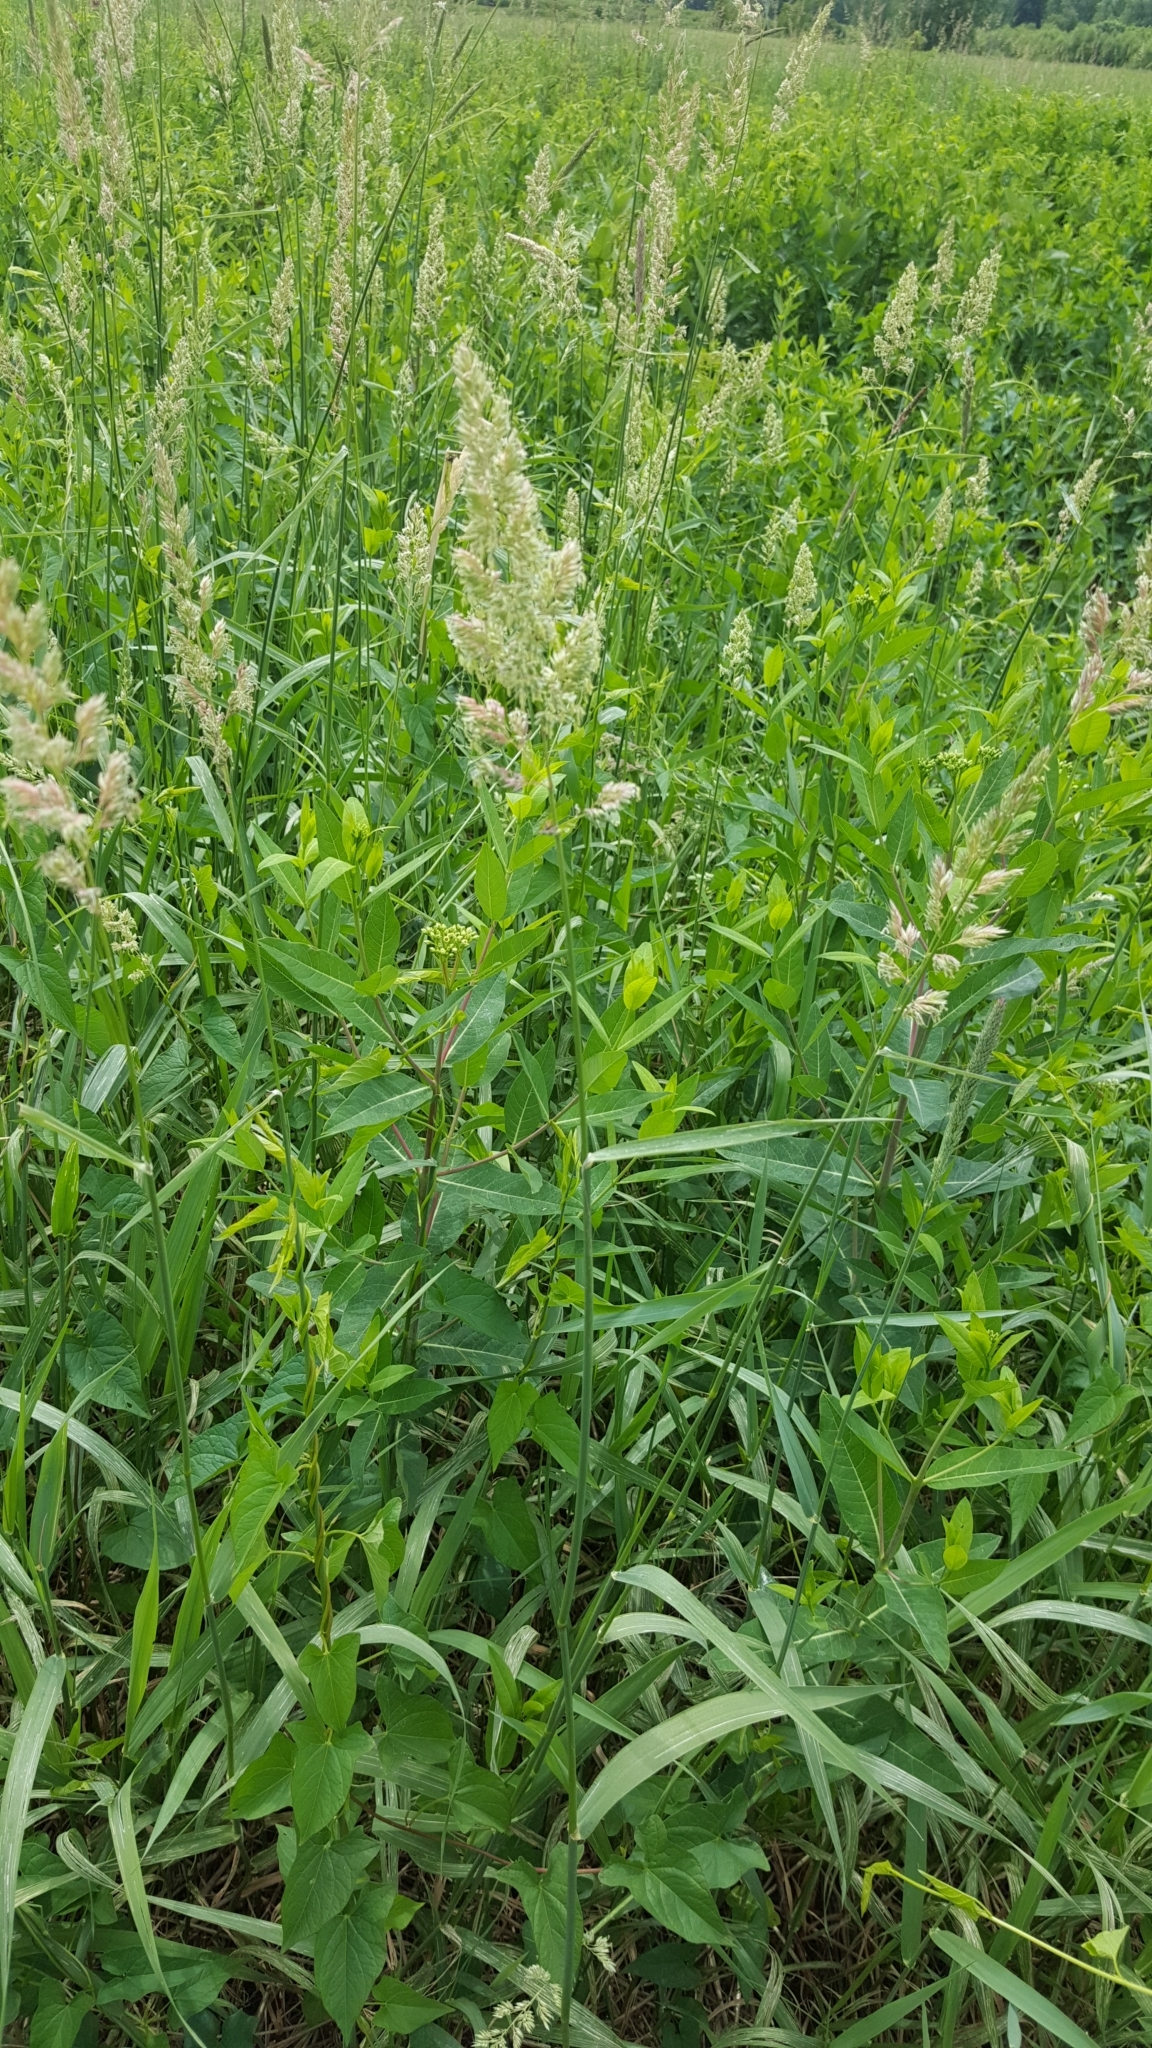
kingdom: Plantae
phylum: Tracheophyta
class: Liliopsida
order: Poales
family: Poaceae
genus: Phalaris
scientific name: Phalaris arundinacea
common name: Reed canary-grass
